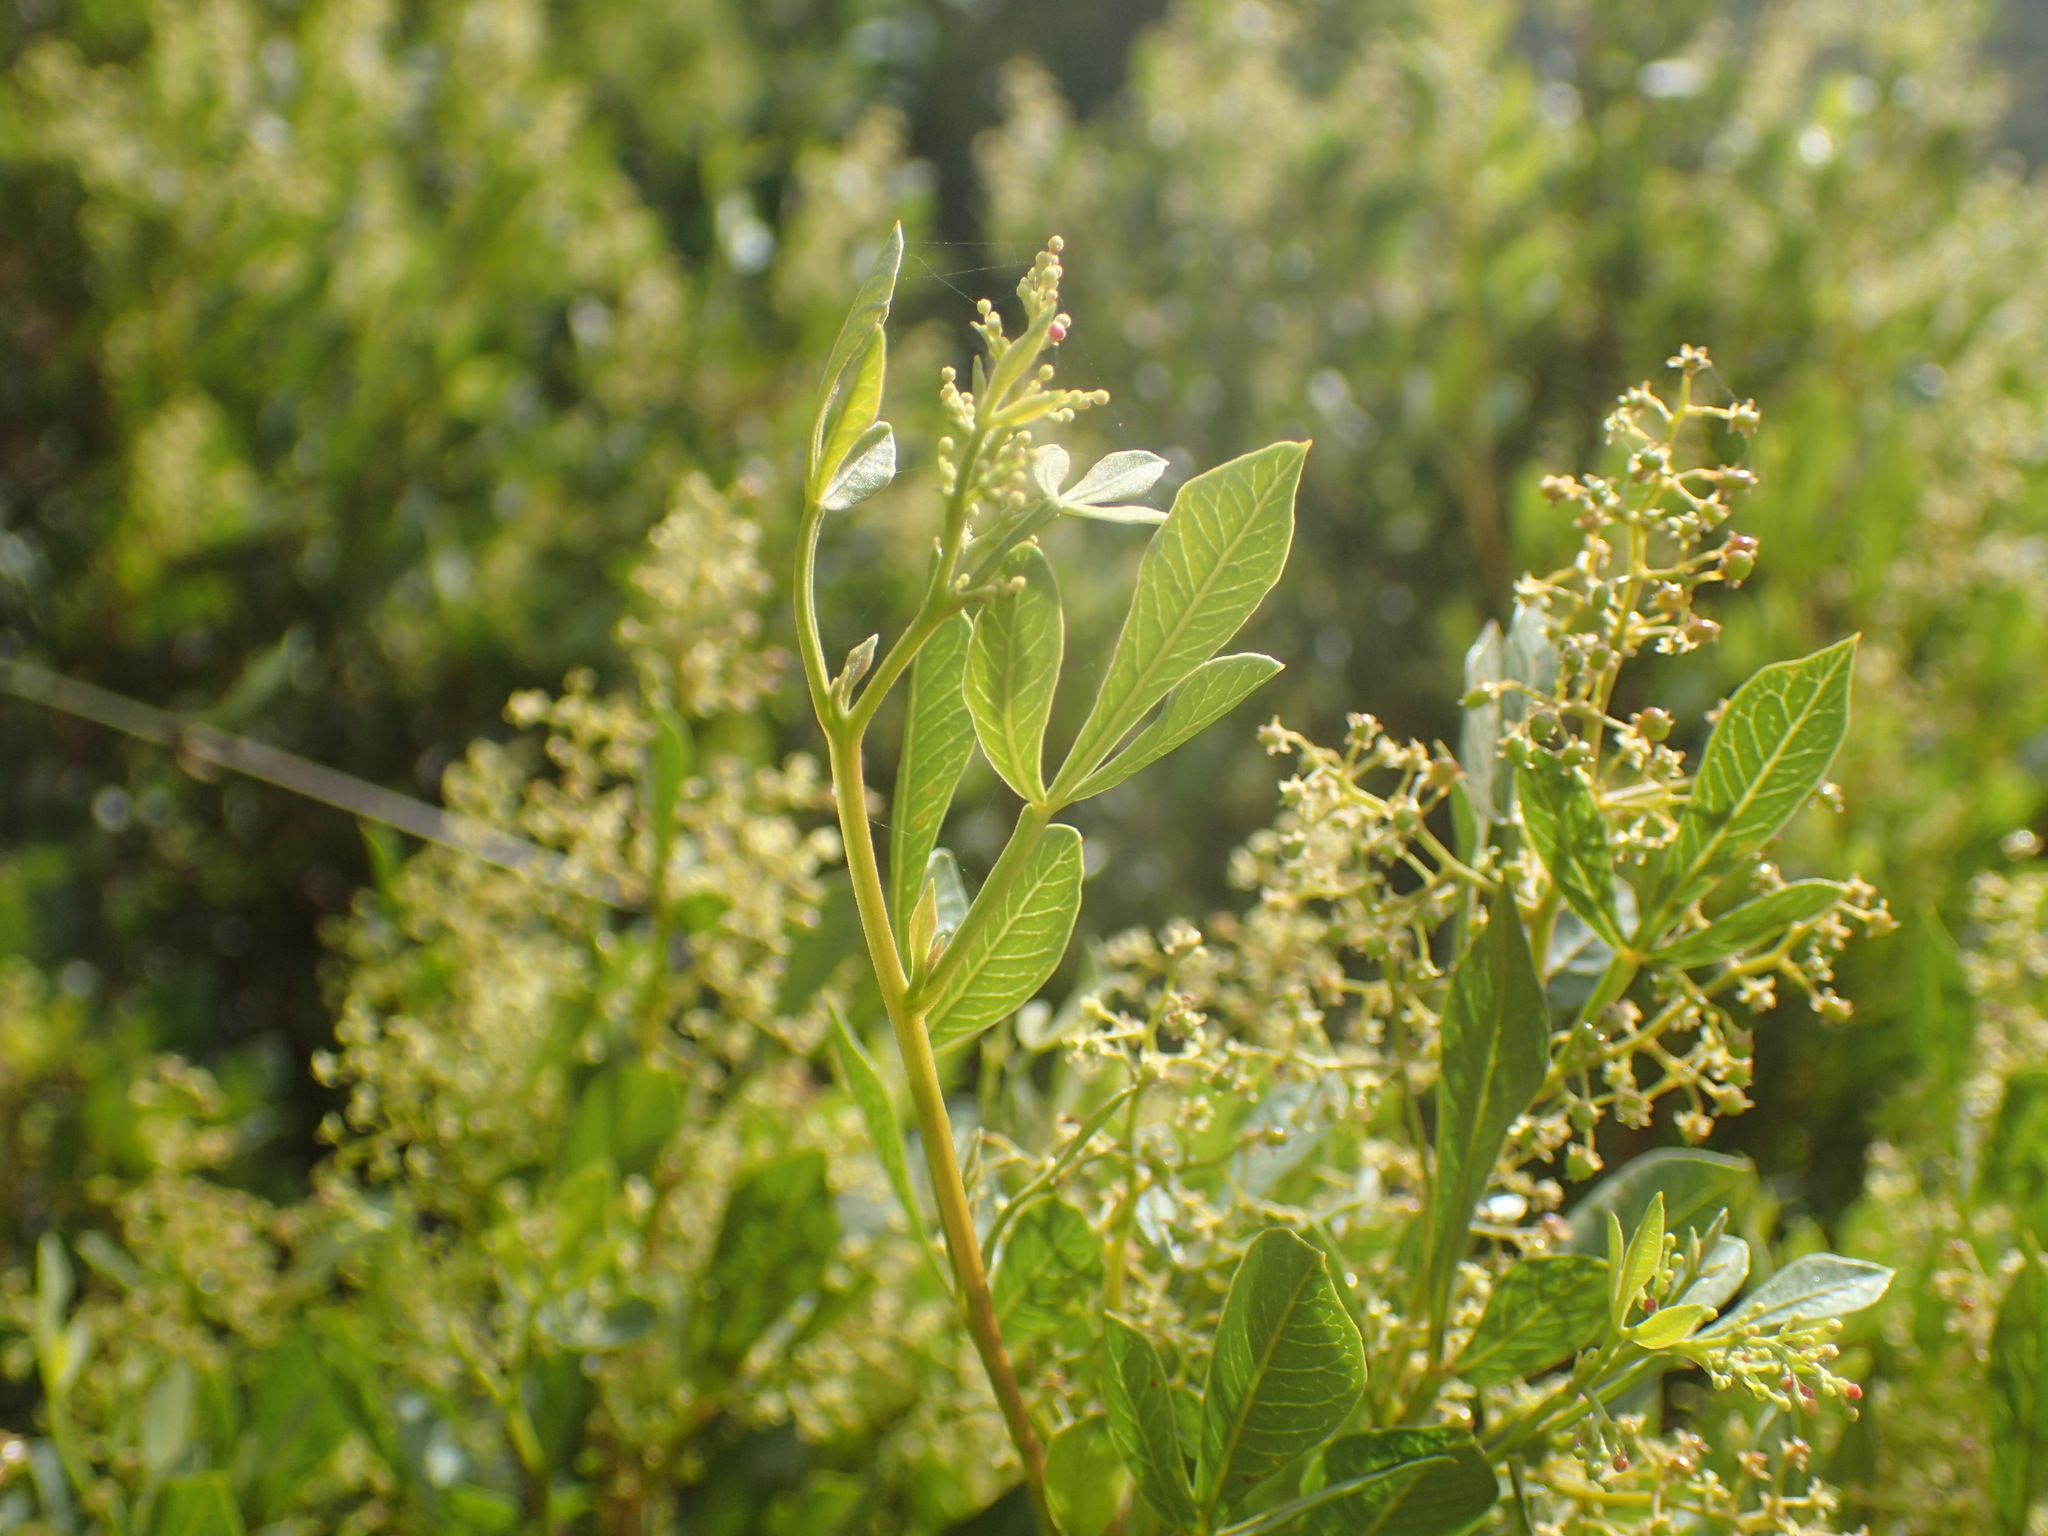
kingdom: Plantae
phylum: Tracheophyta
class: Magnoliopsida
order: Sapindales
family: Anacardiaceae
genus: Searsia
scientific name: Searsia pallens
